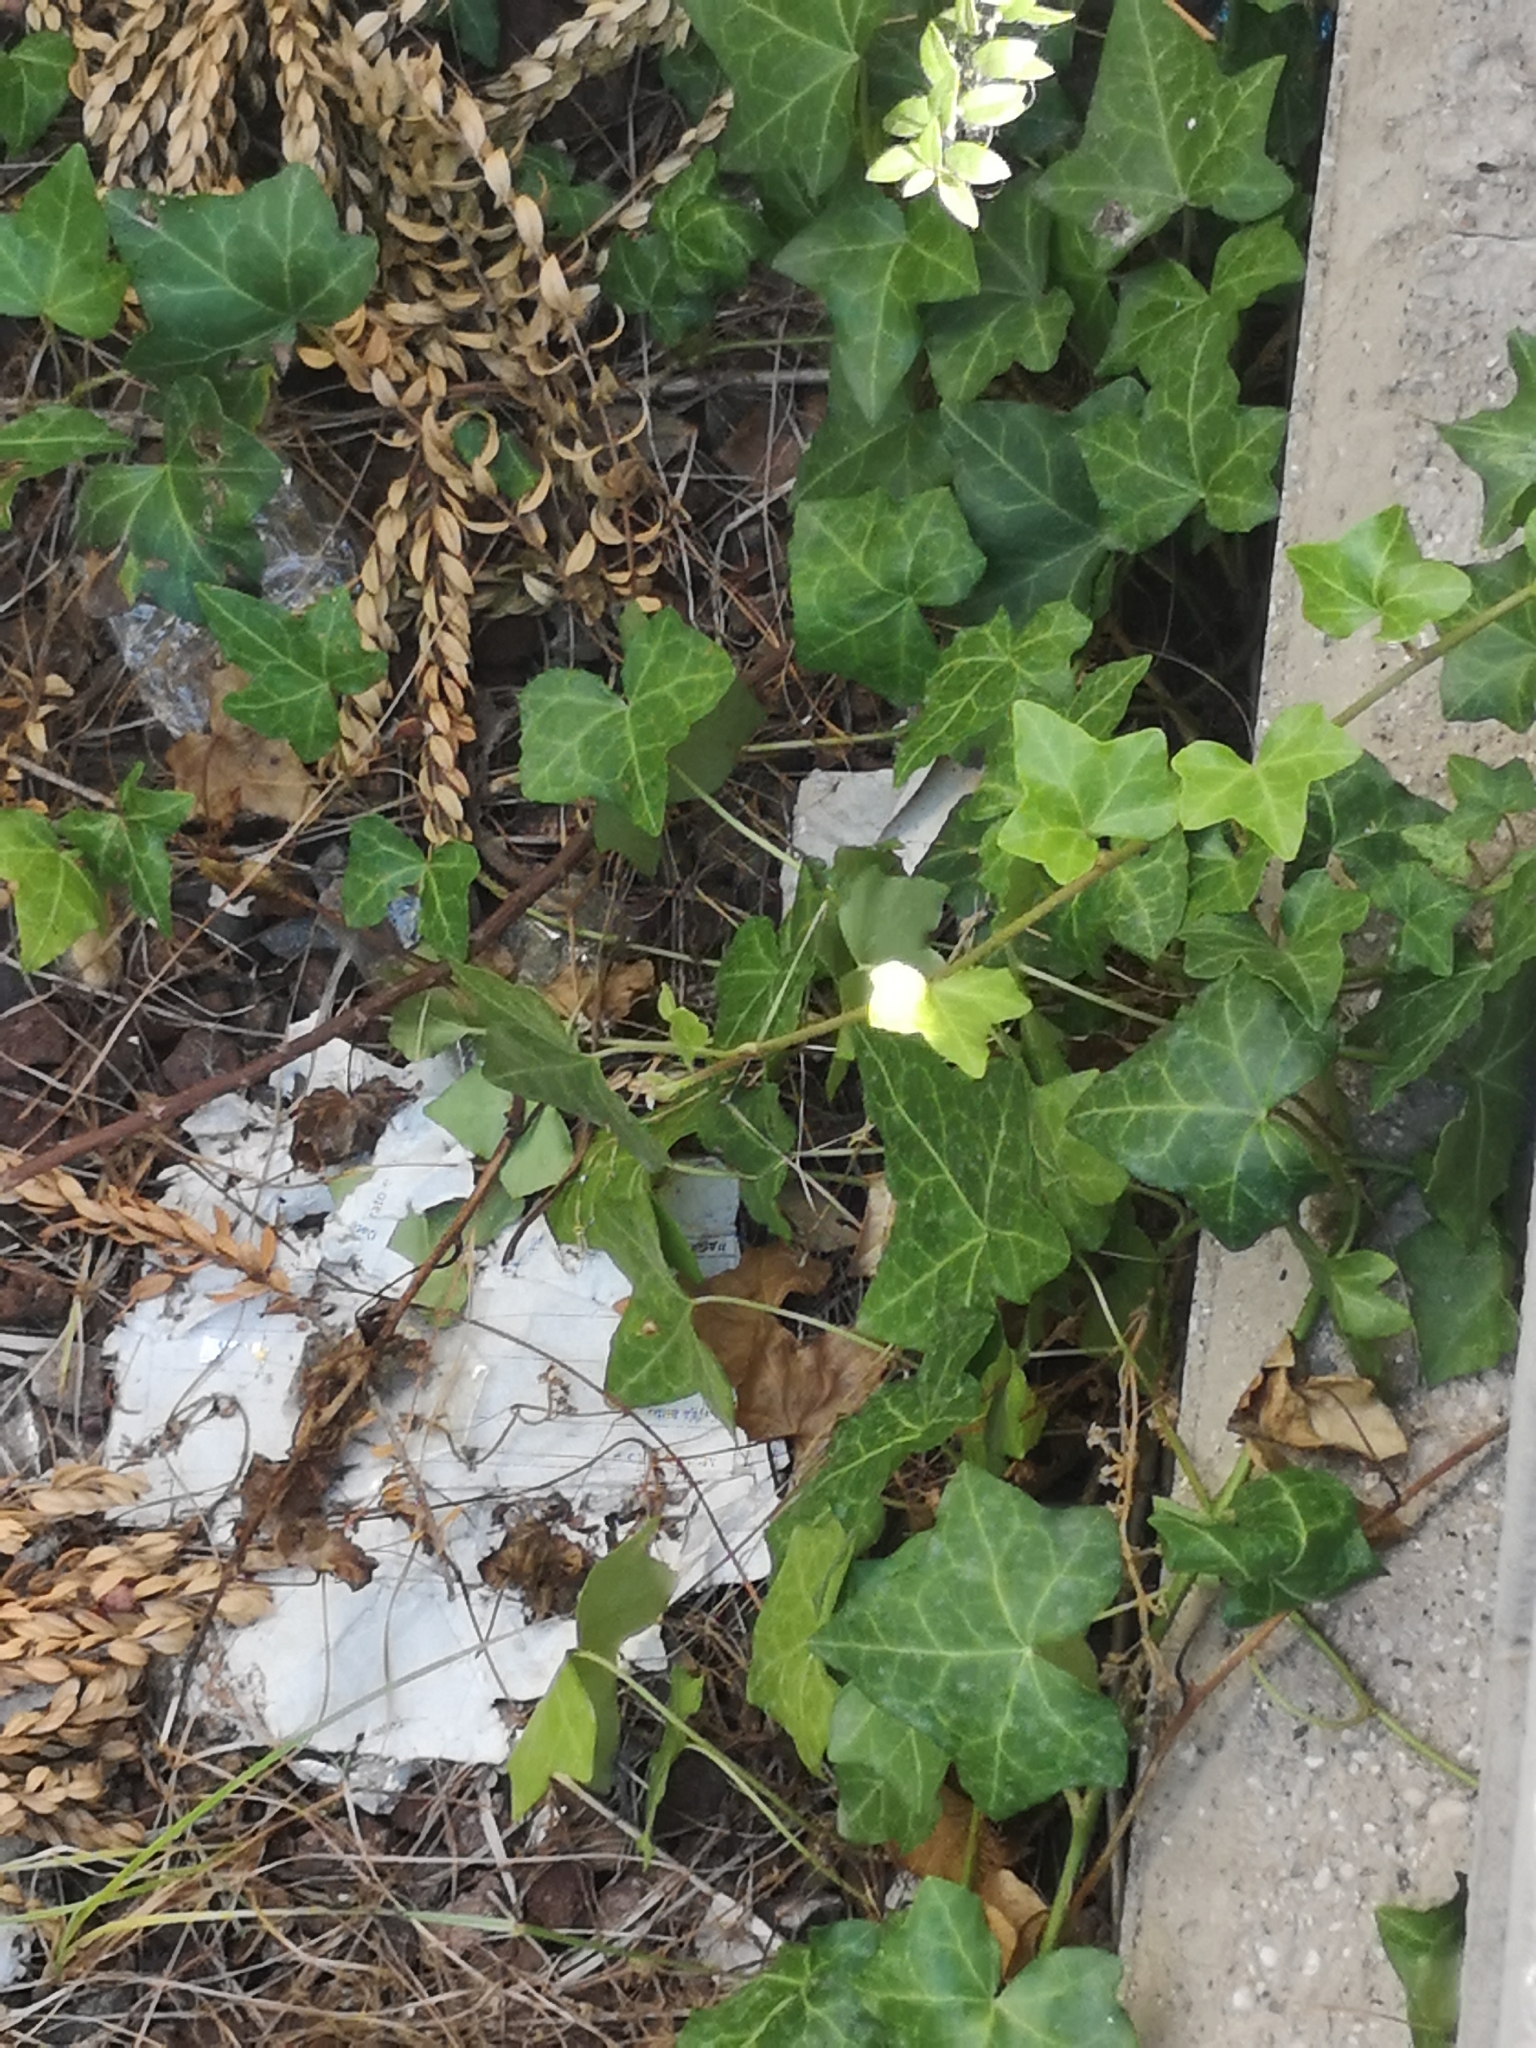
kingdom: Plantae
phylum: Tracheophyta
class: Magnoliopsida
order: Apiales
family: Araliaceae
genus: Hedera
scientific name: Hedera helix
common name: Ivy
